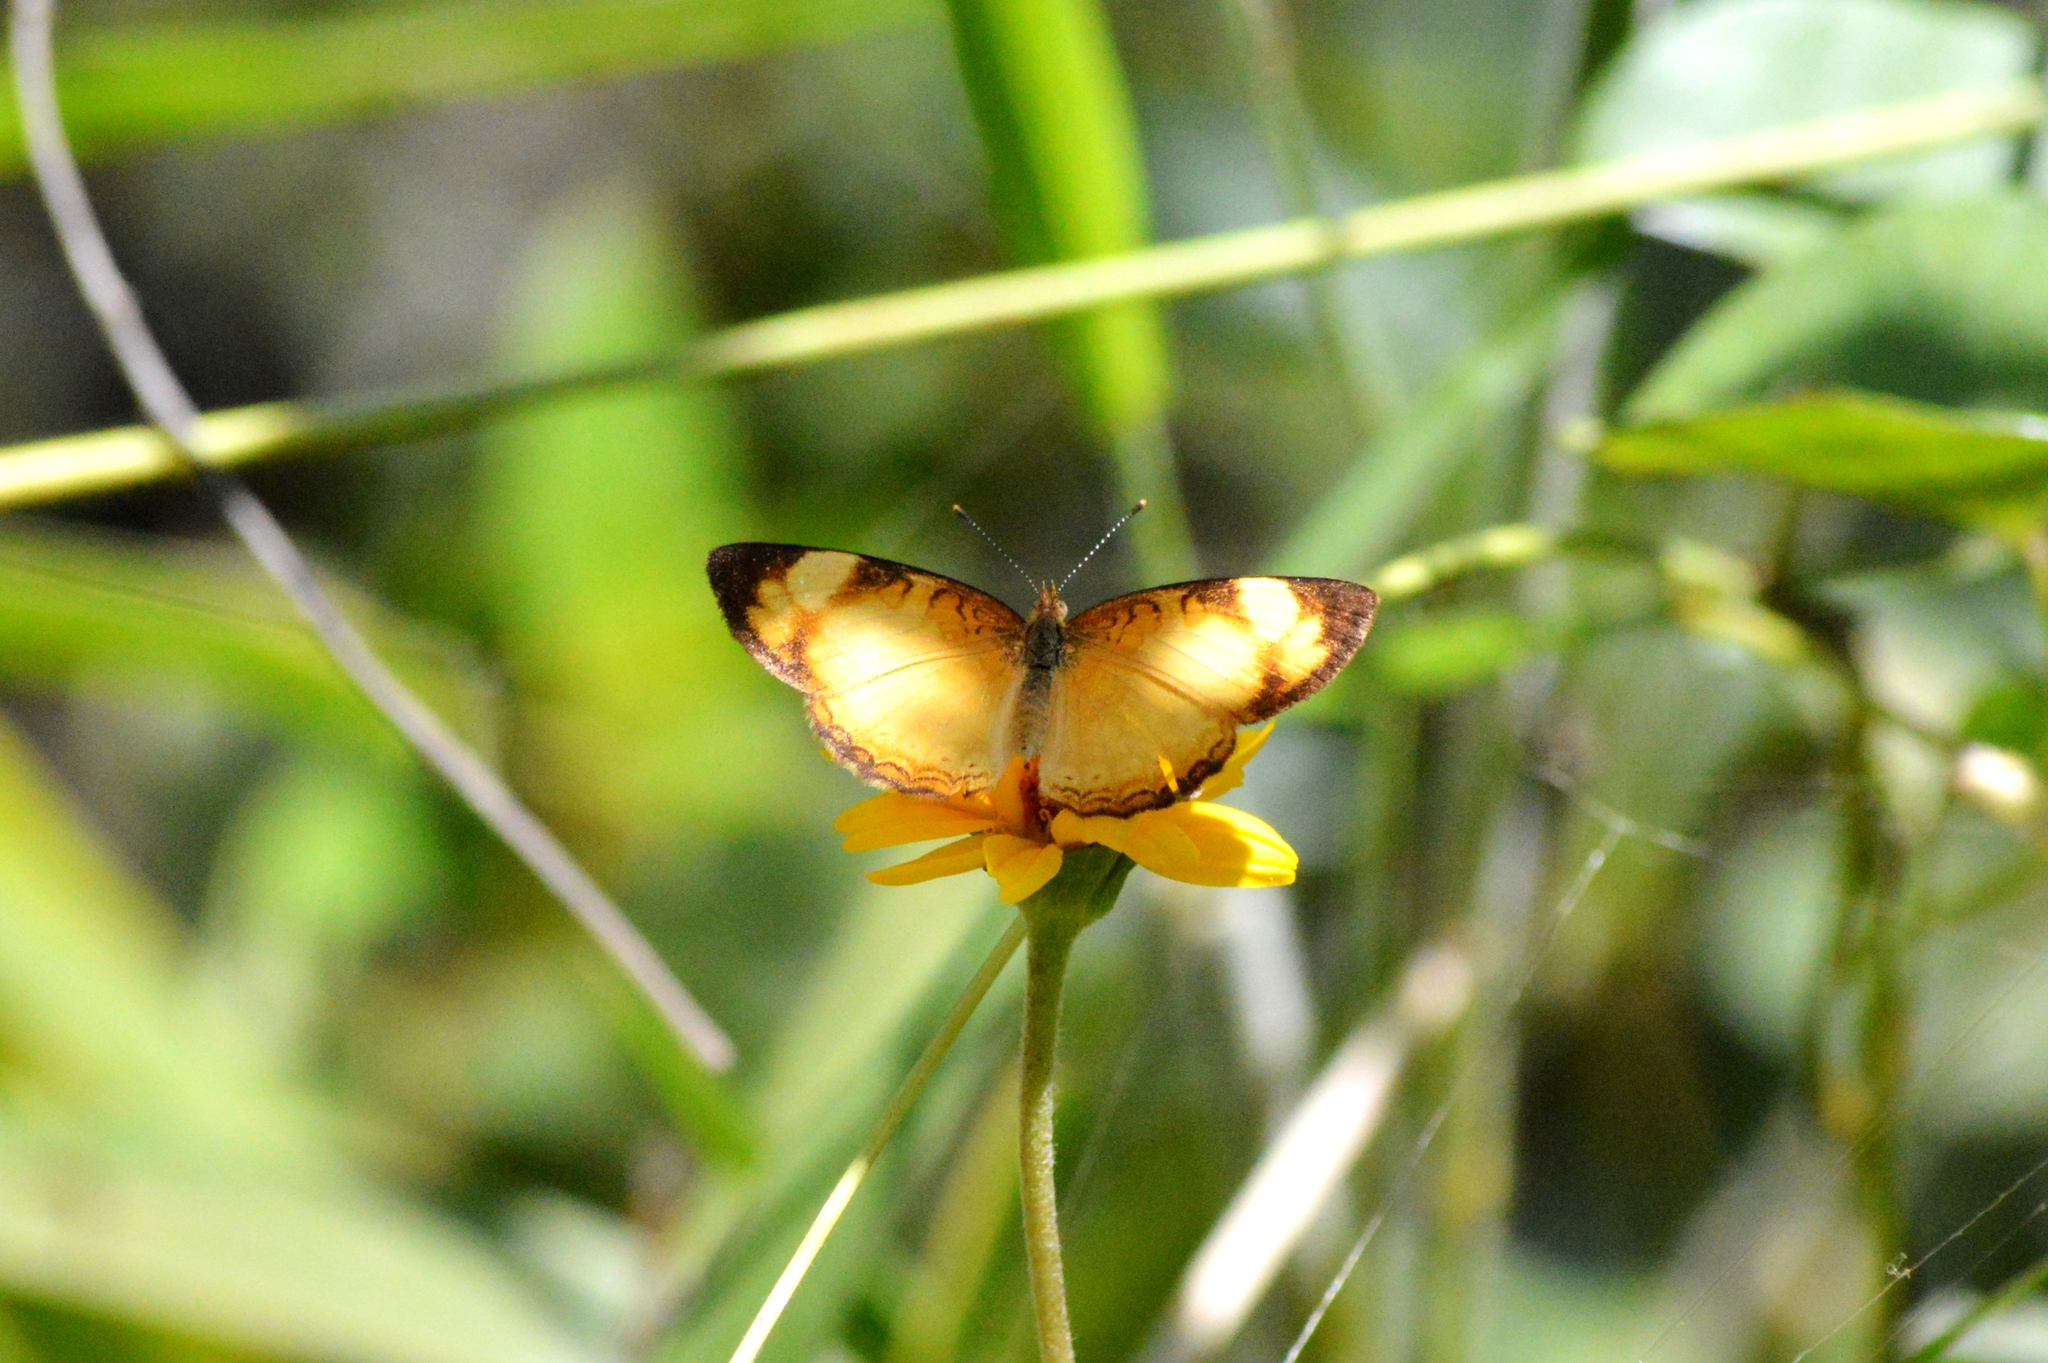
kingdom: Animalia
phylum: Arthropoda
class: Insecta
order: Lepidoptera
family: Nymphalidae
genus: Tegosa
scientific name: Tegosa claudina
